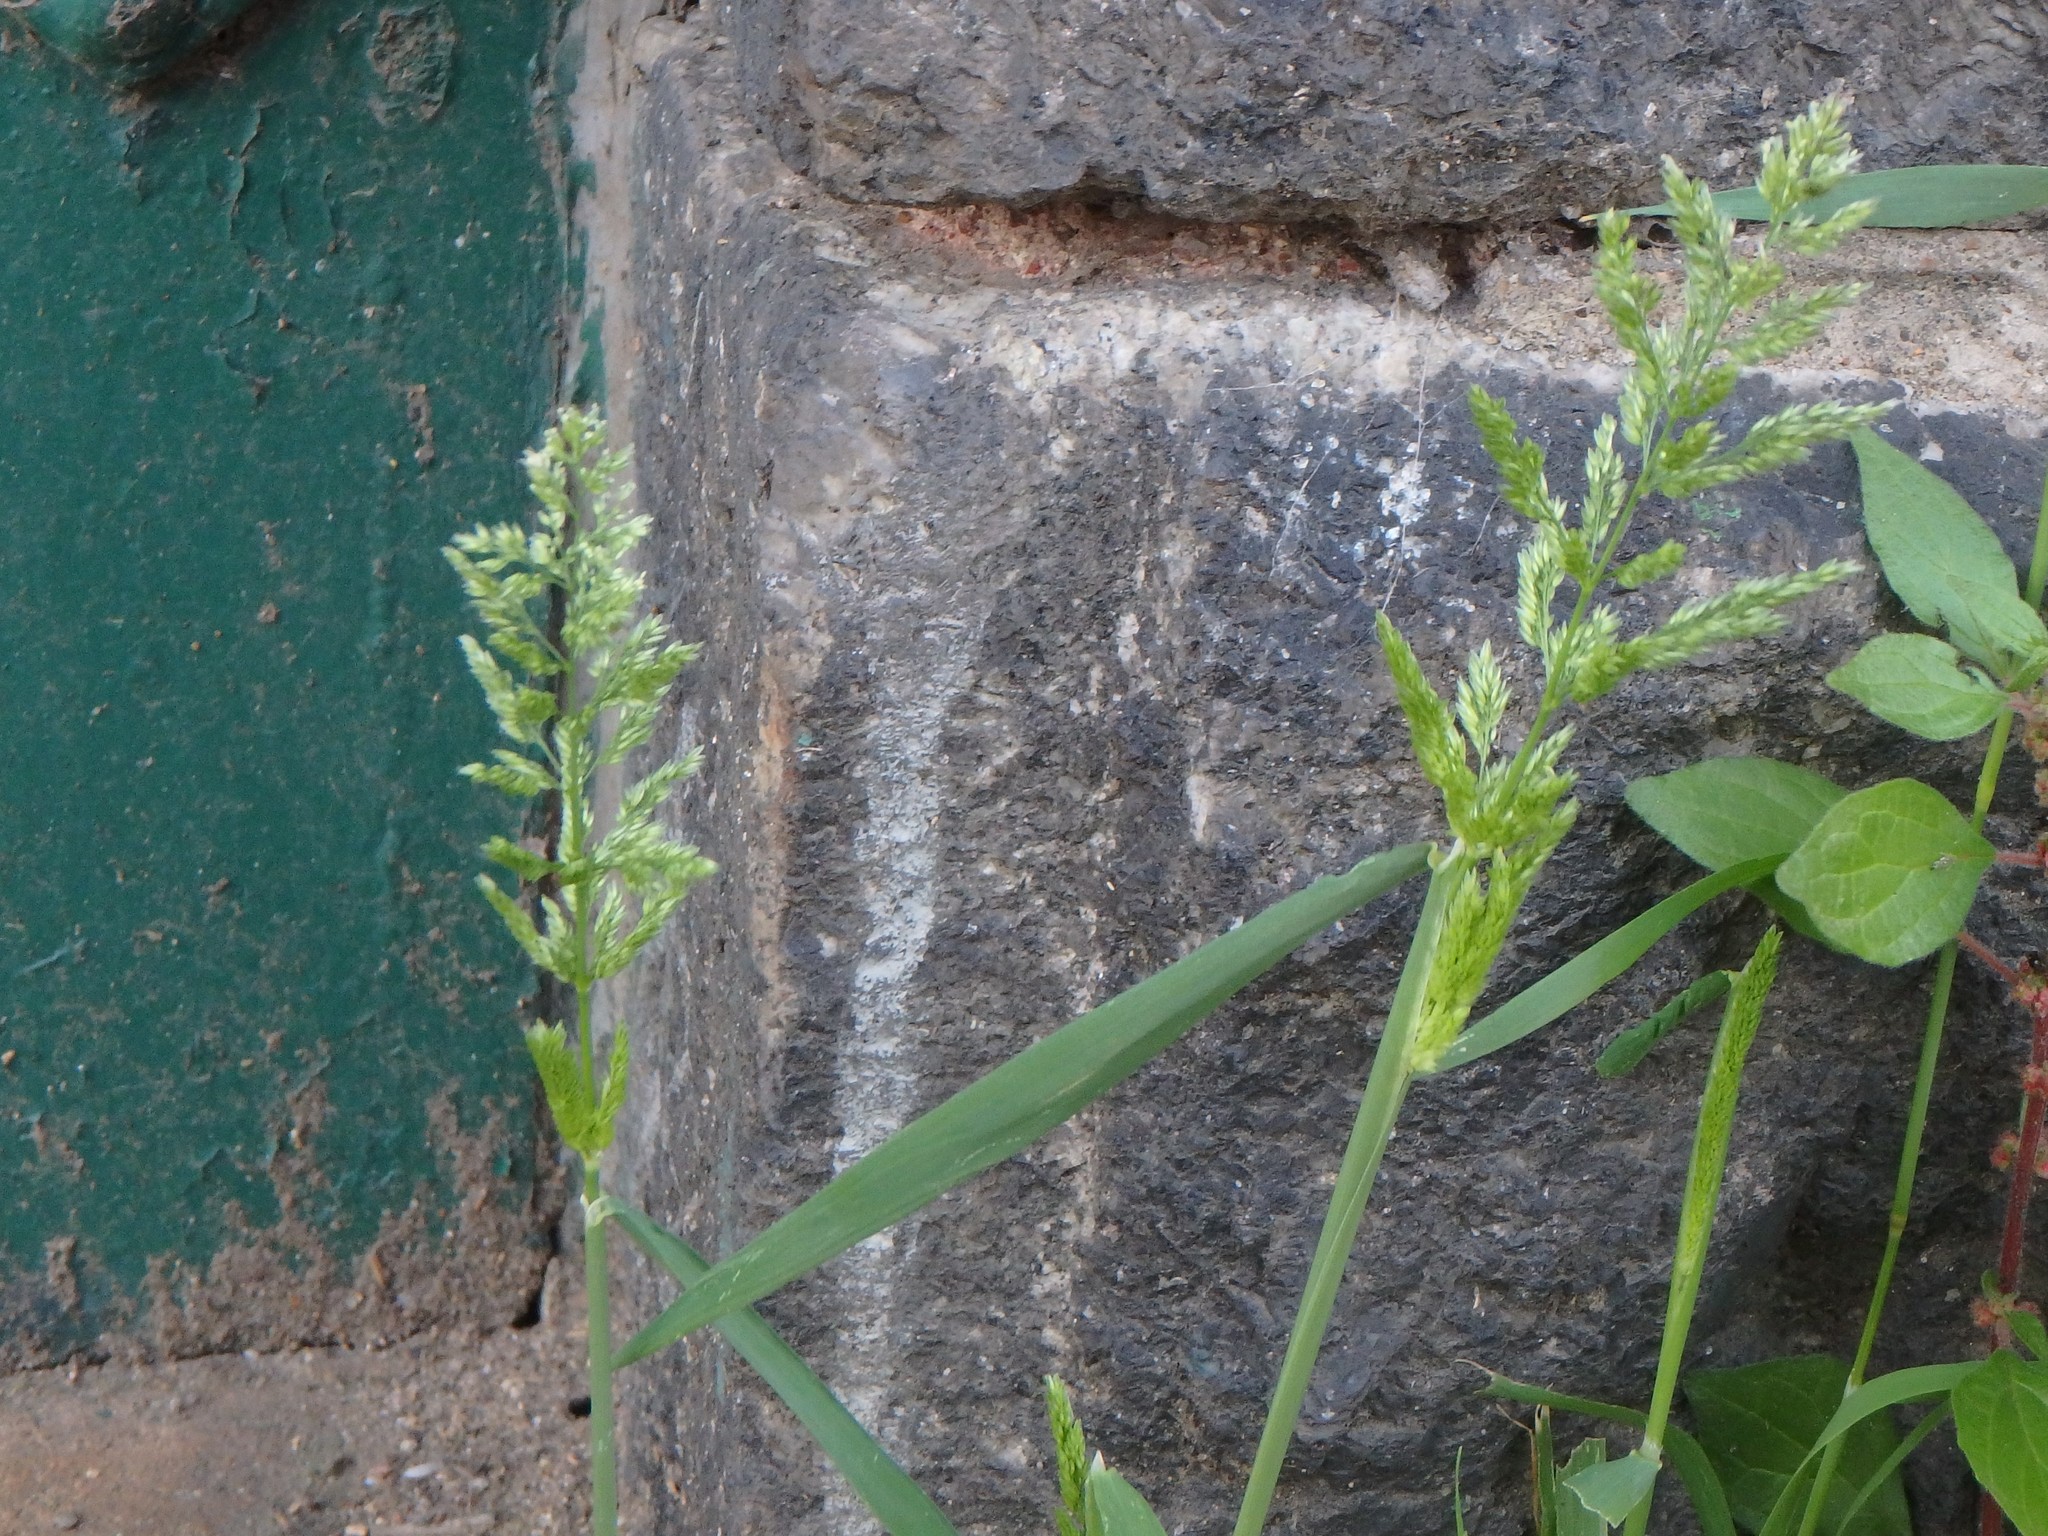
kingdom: Plantae
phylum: Tracheophyta
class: Liliopsida
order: Poales
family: Poaceae
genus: Polypogon
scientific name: Polypogon viridis
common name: Water bent
